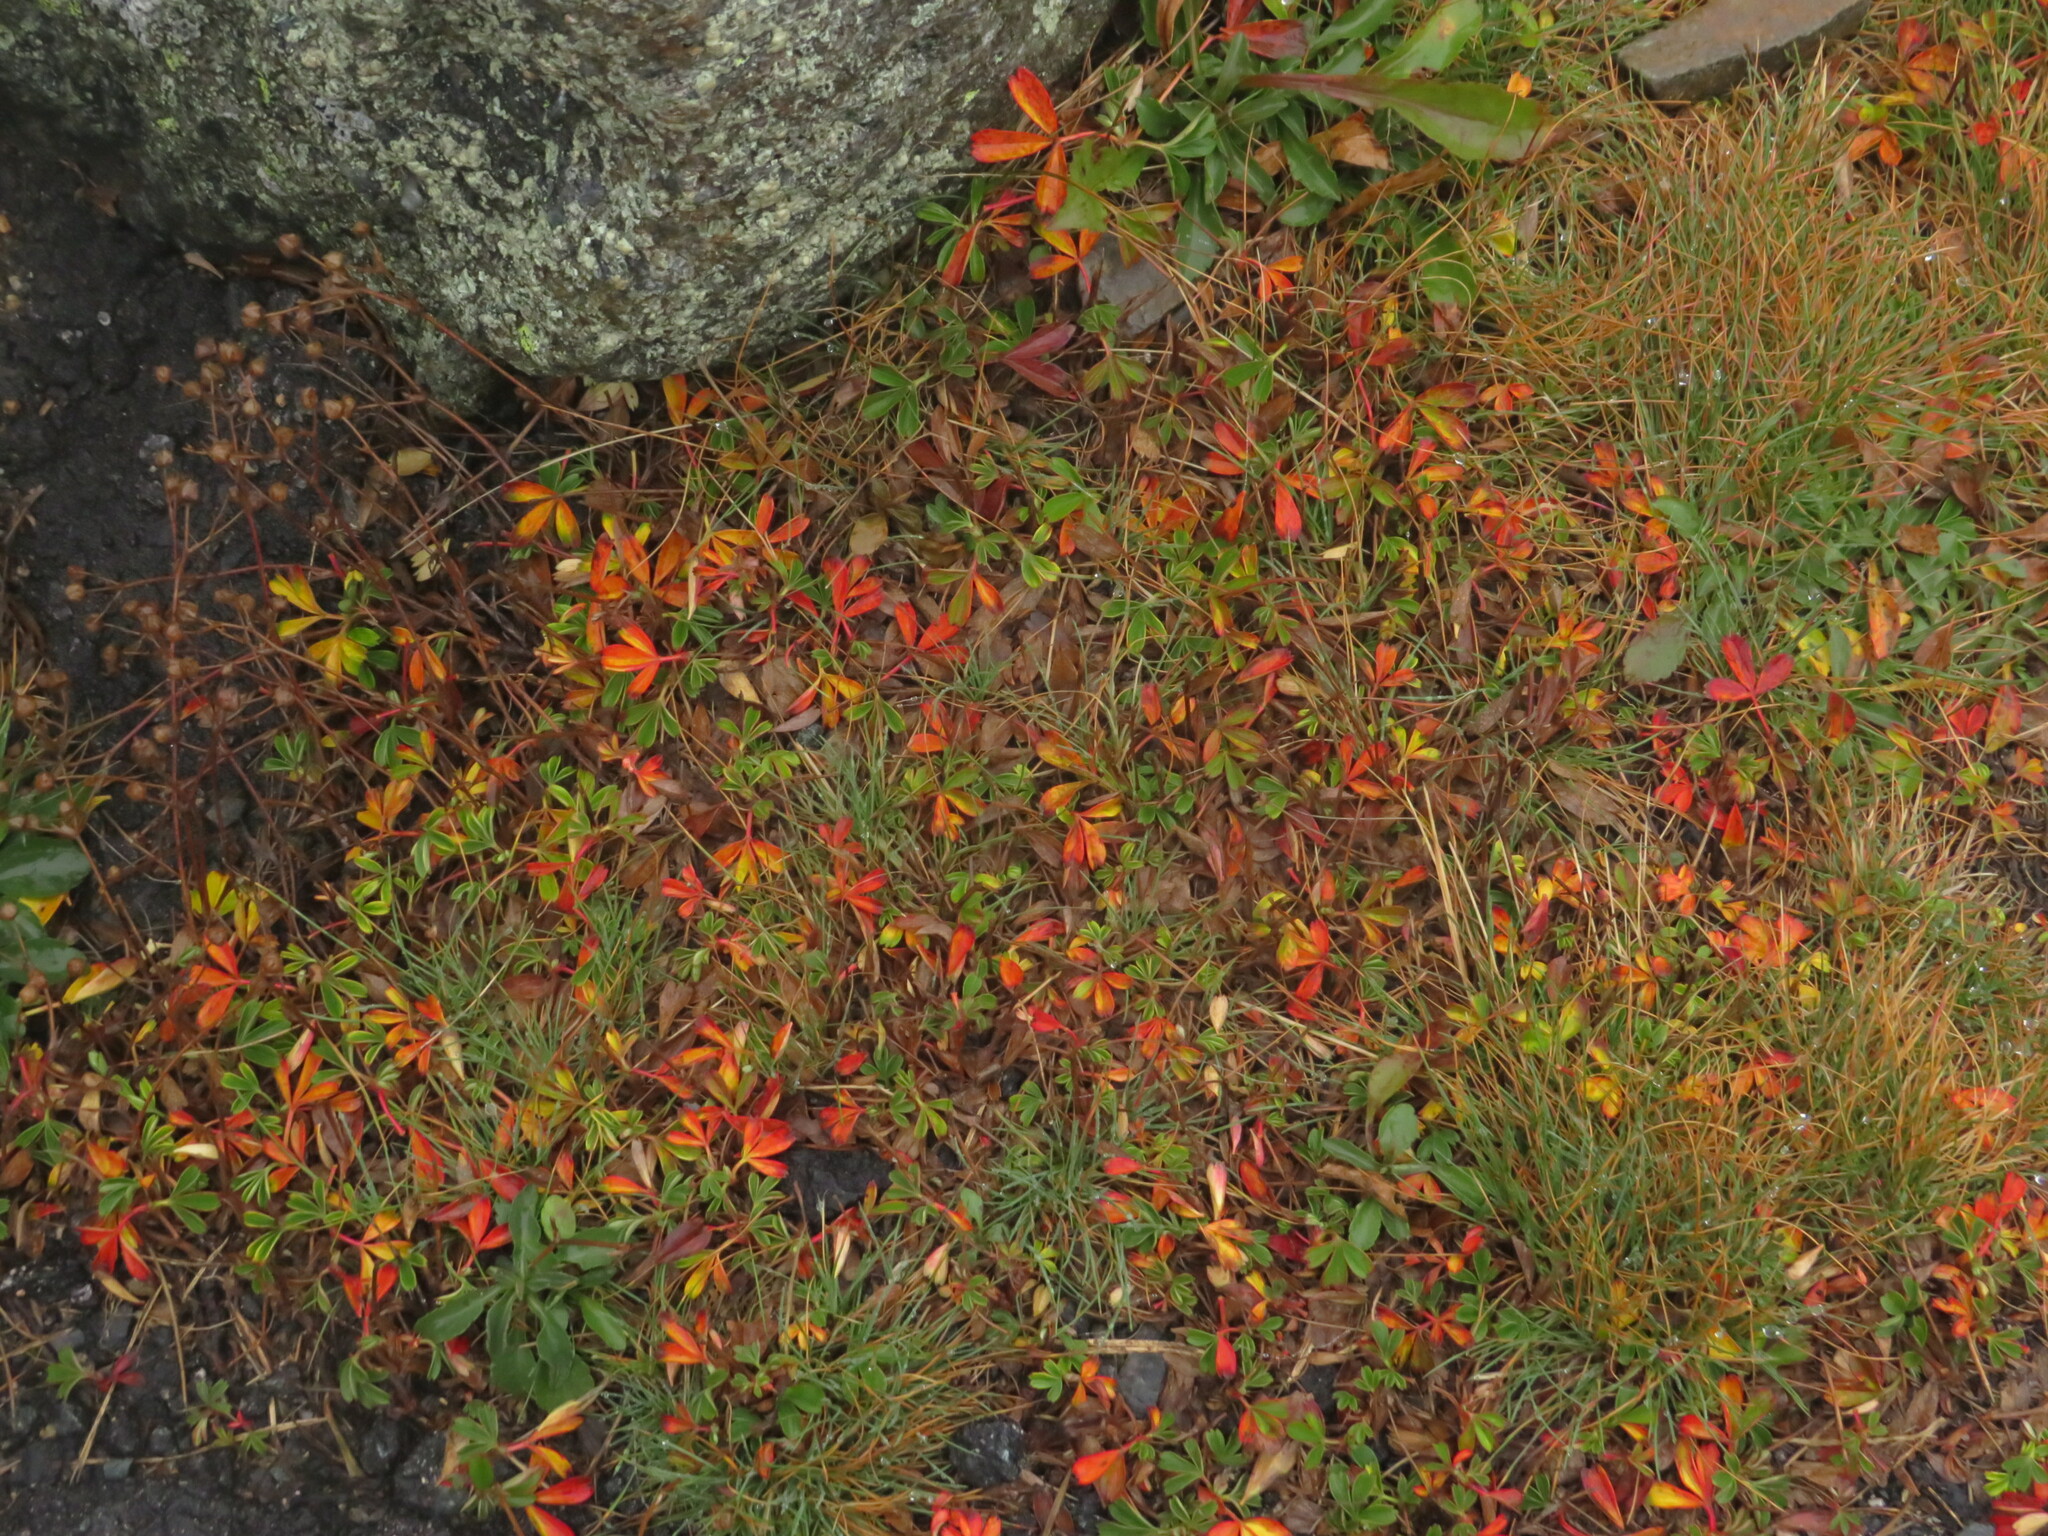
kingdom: Plantae
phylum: Tracheophyta
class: Magnoliopsida
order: Rosales
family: Rosaceae
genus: Sibbaldia
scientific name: Sibbaldia tridentata
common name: Three-toothed cinquefoil
